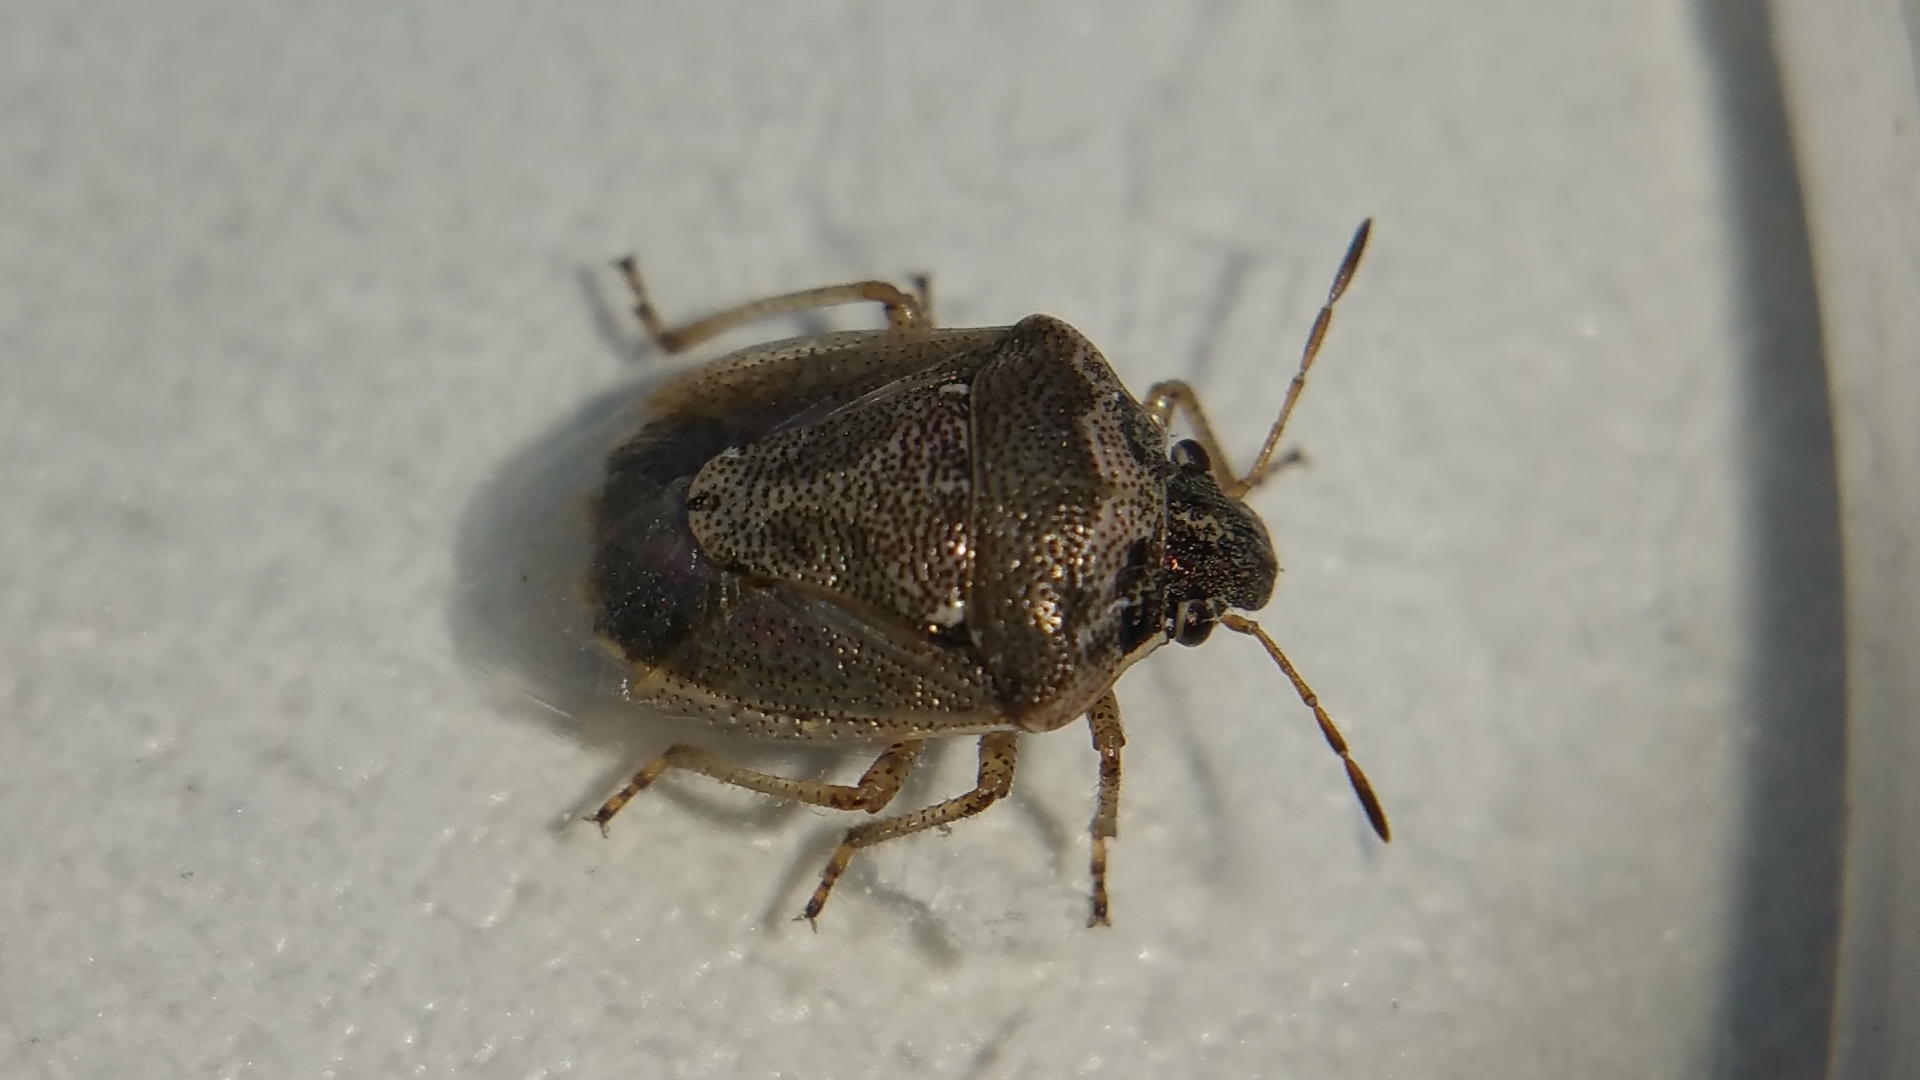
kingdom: Animalia
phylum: Arthropoda
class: Insecta
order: Hemiptera
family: Pentatomidae
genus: Eysarcoris
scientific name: Eysarcoris ventralis
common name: White-spotted stink bug
